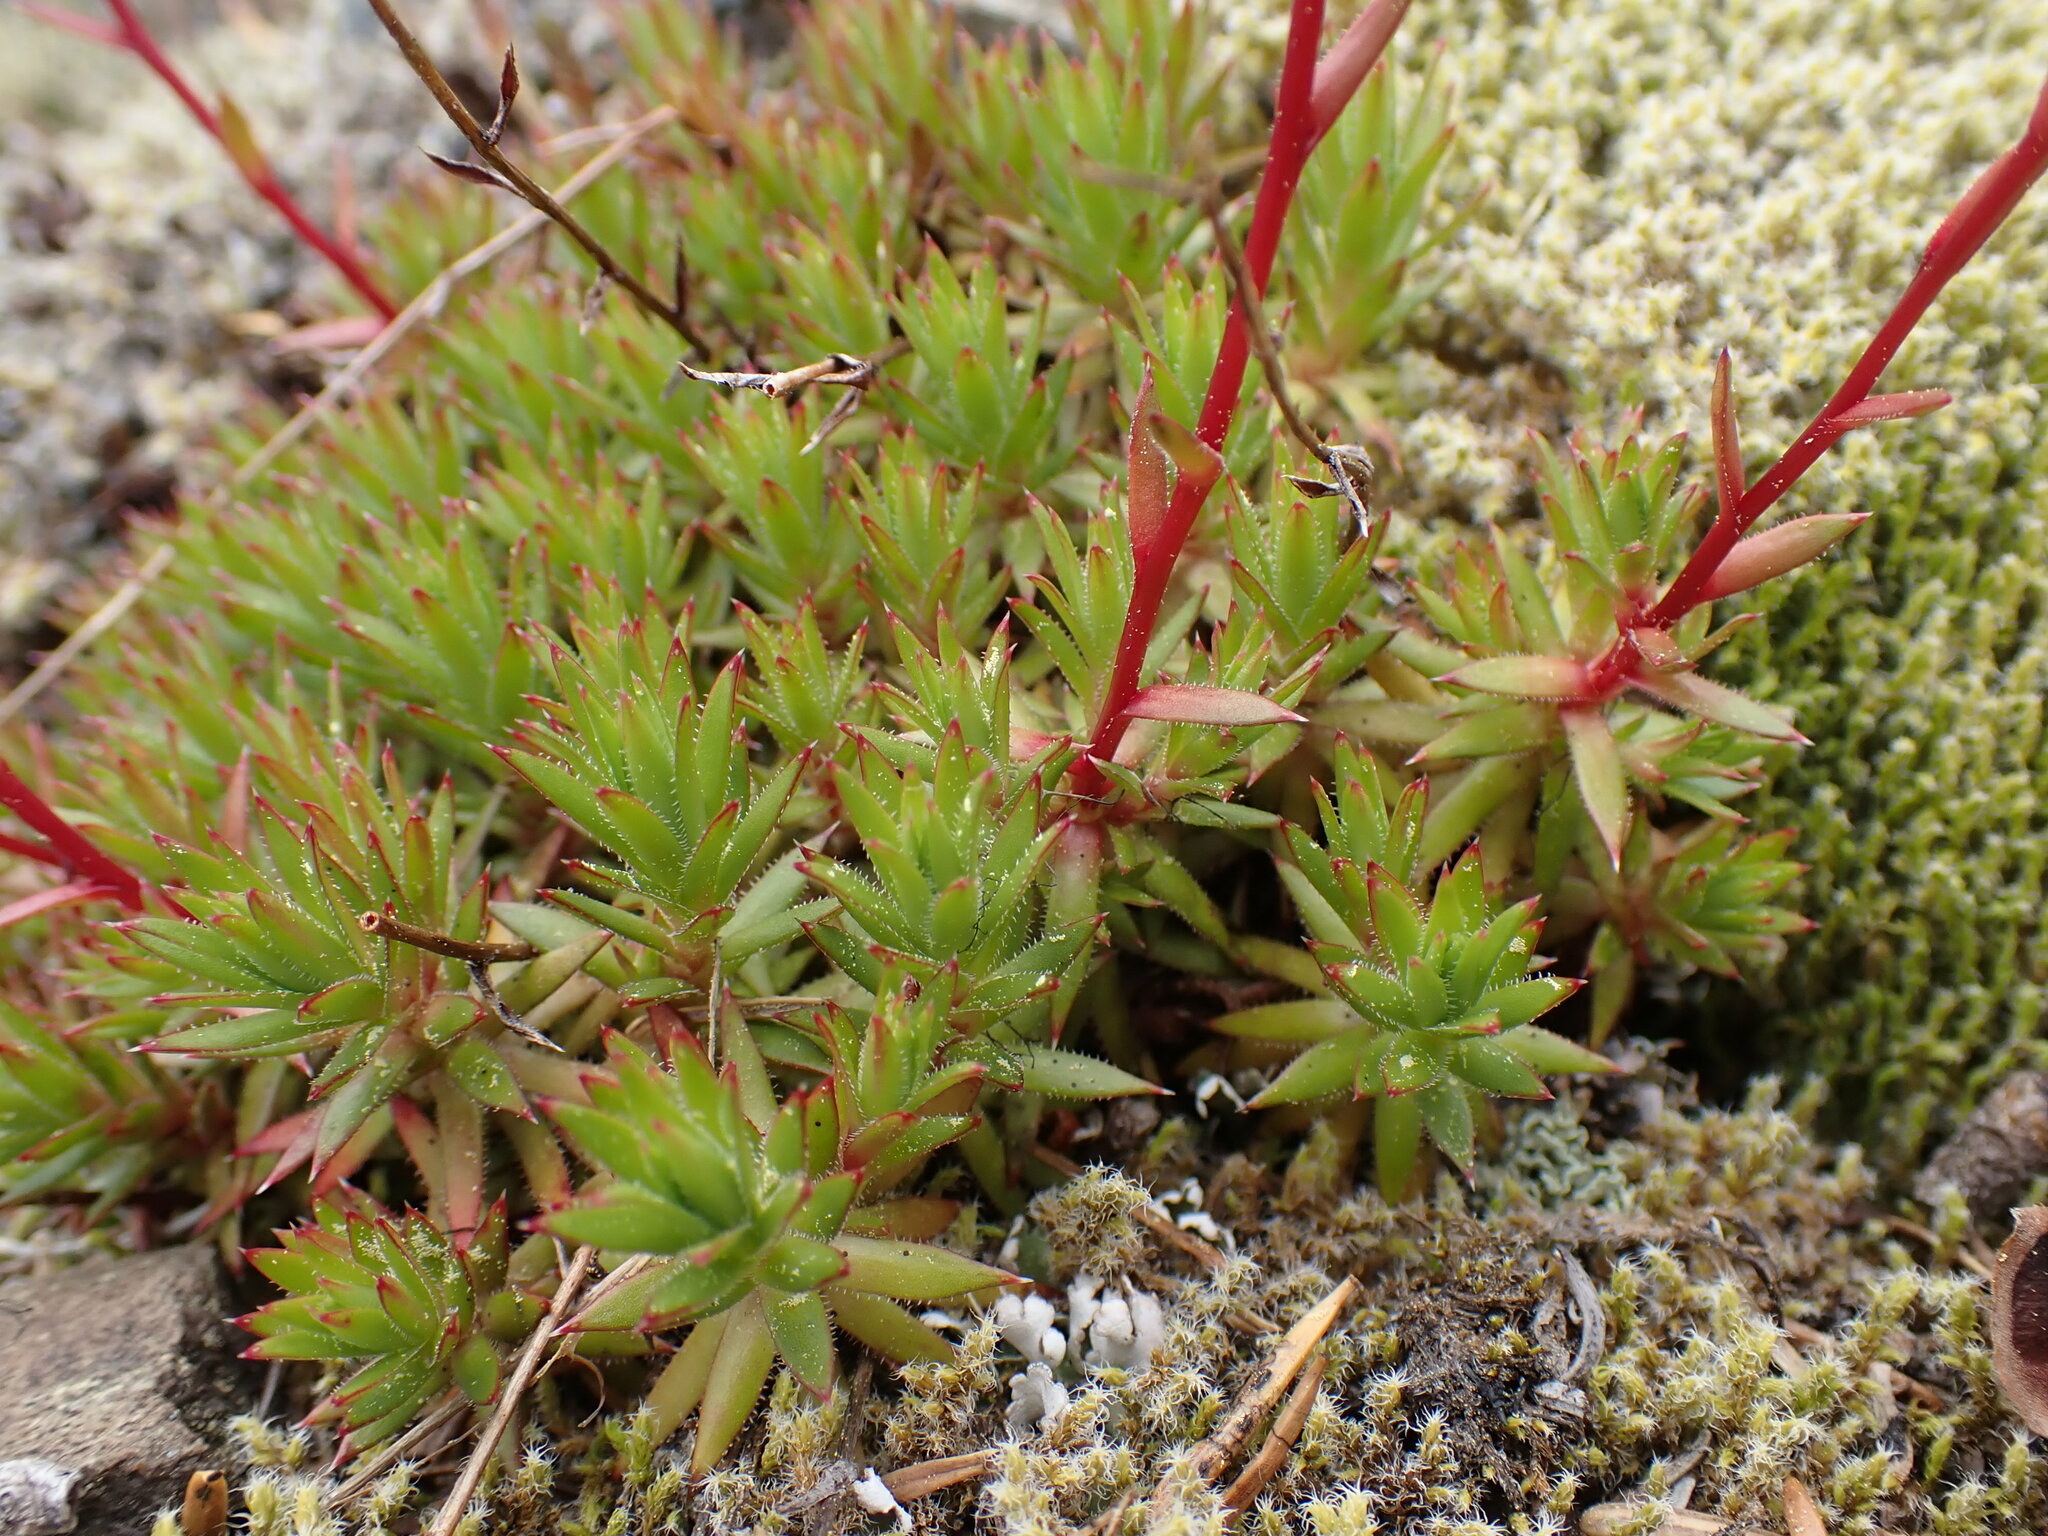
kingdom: Plantae
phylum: Tracheophyta
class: Magnoliopsida
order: Saxifragales
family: Saxifragaceae
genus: Saxifraga
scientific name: Saxifraga bronchialis
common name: Matted saxifrage
